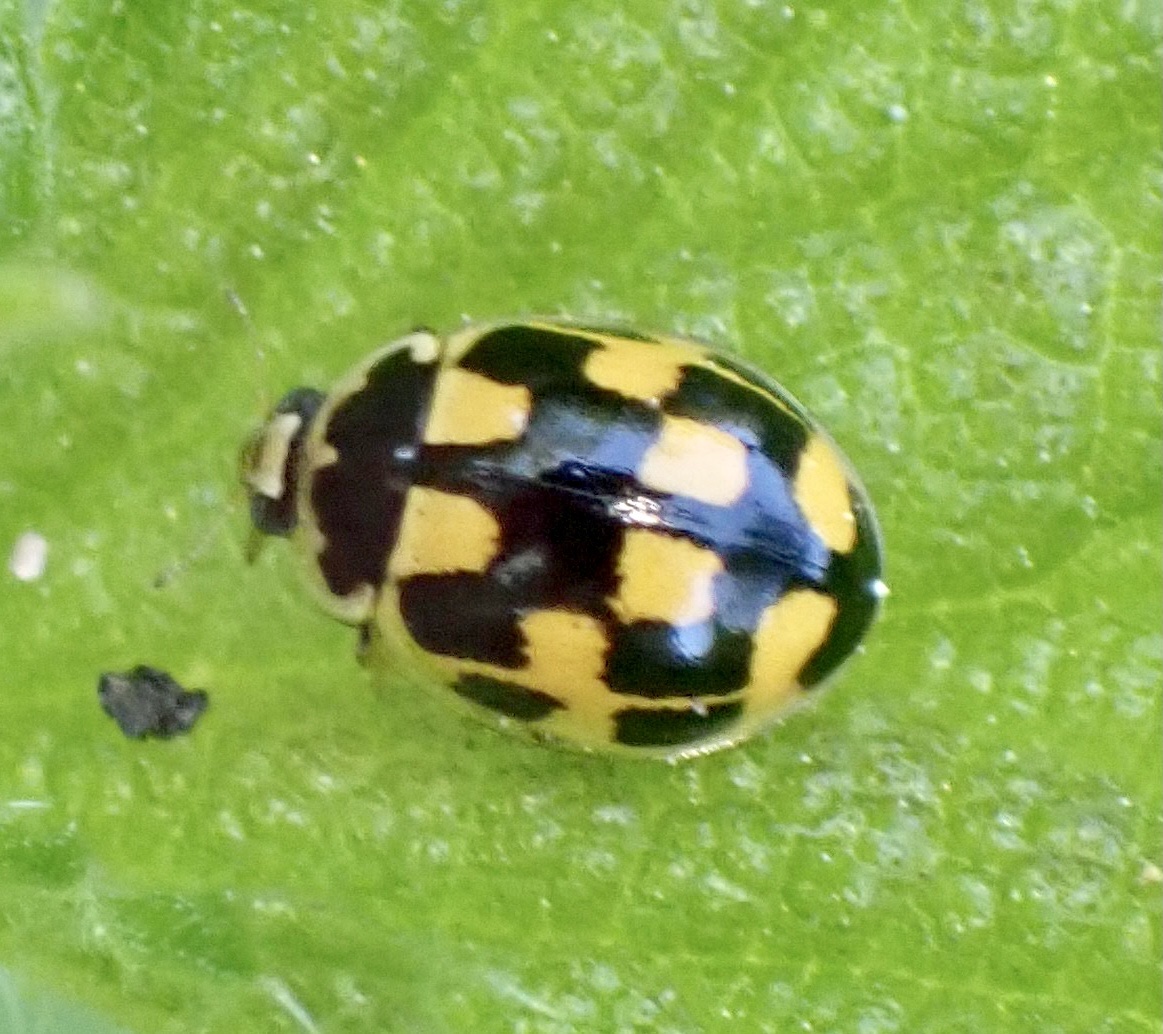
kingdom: Animalia
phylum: Arthropoda
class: Insecta
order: Coleoptera
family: Coccinellidae
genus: Propylaea
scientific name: Propylaea quatuordecimpunctata
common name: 14-spotted ladybird beetle
